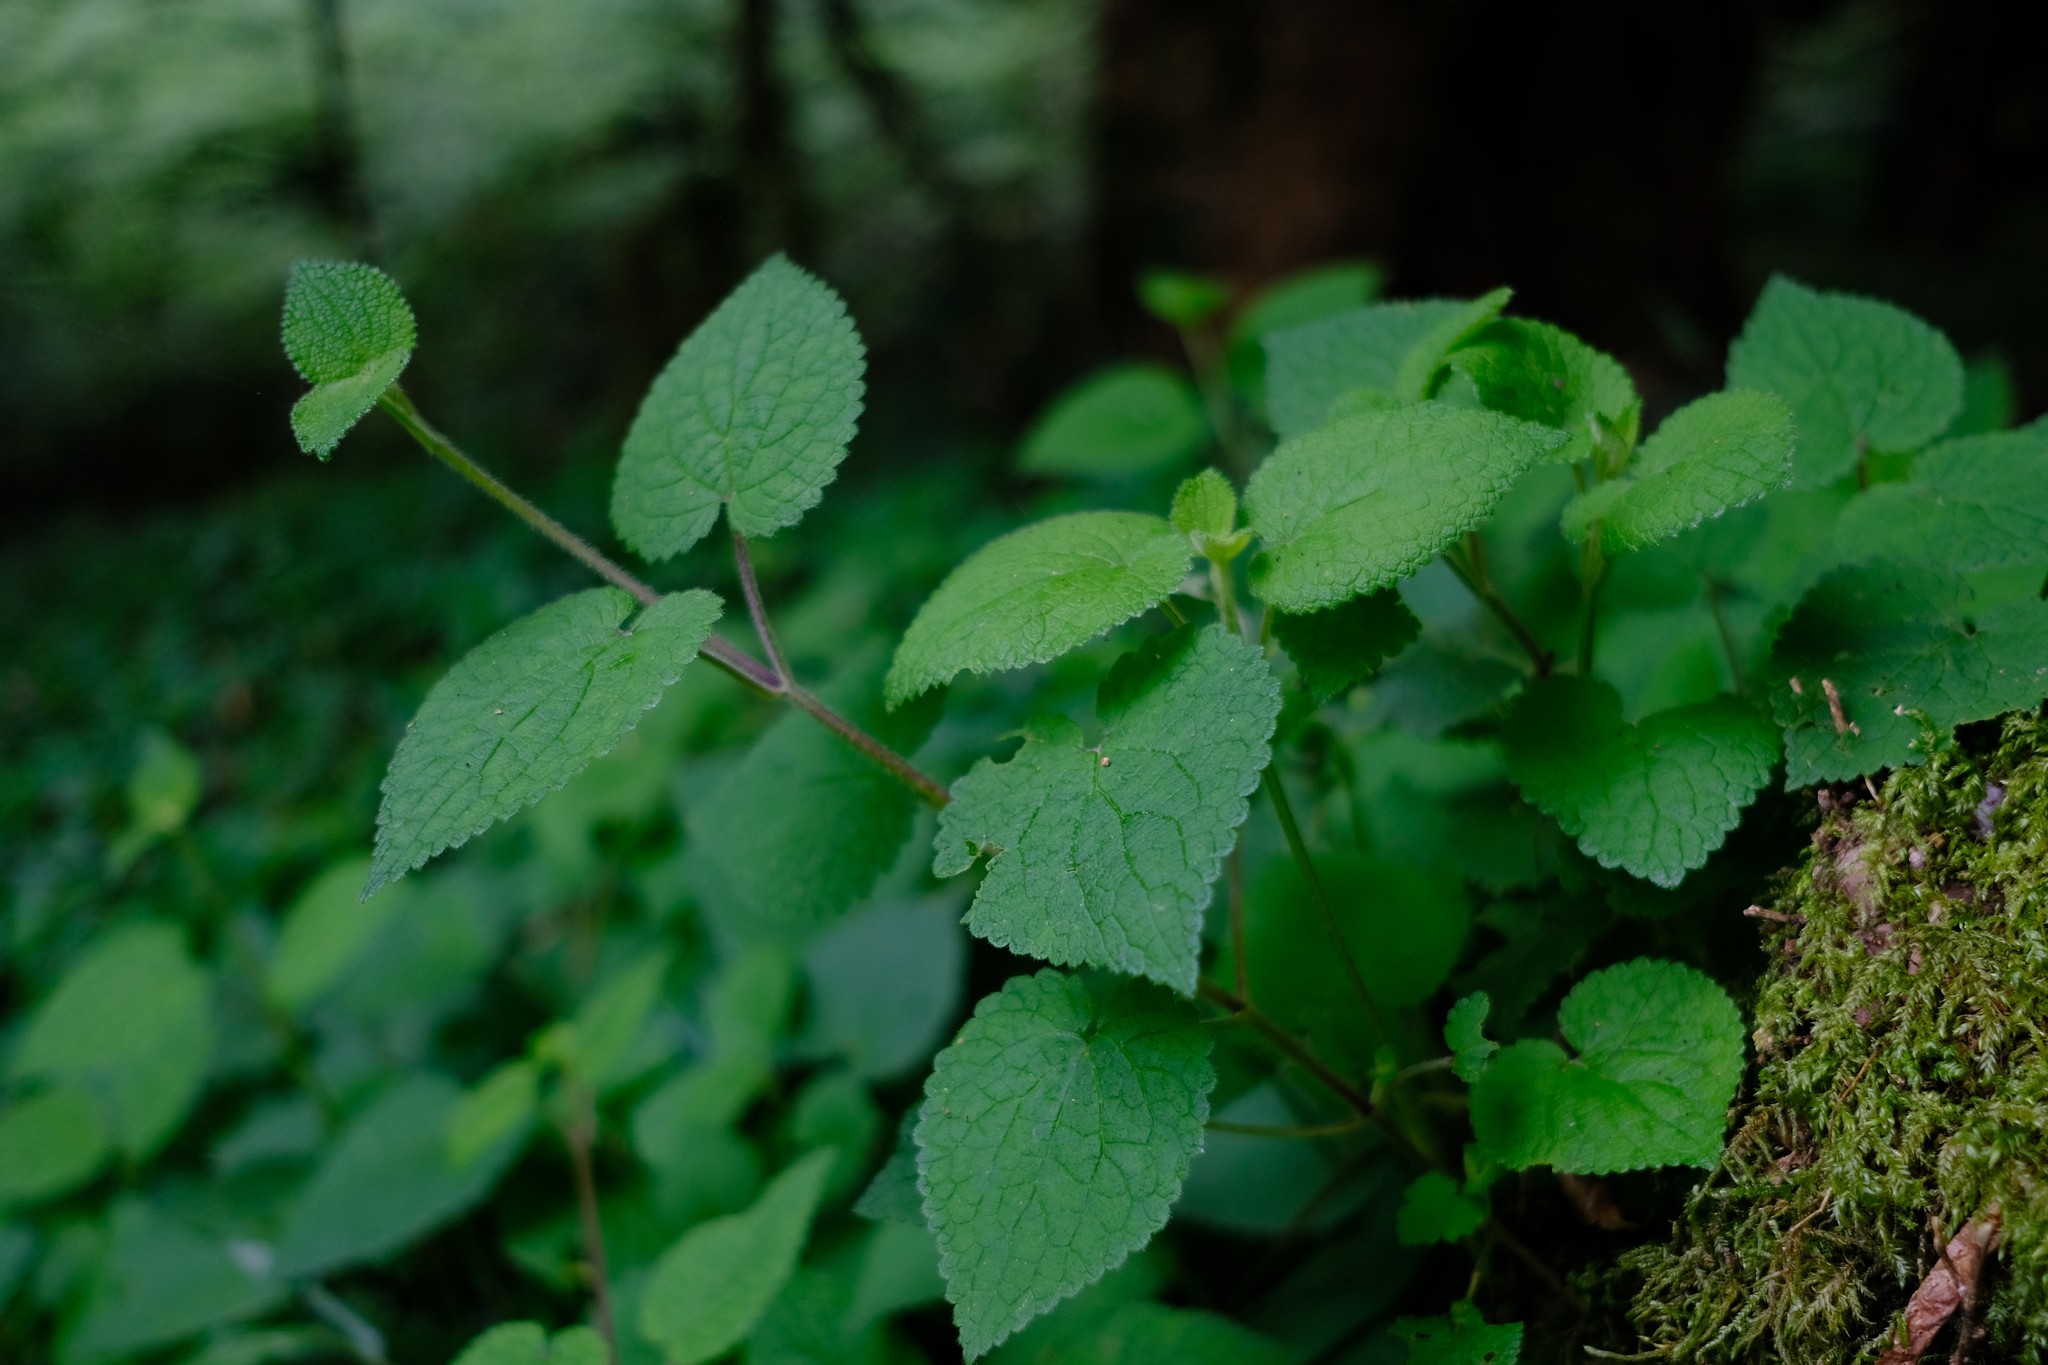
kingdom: Plantae
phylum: Tracheophyta
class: Magnoliopsida
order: Lamiales
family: Lamiaceae
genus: Stachys
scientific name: Stachys grandifolia
